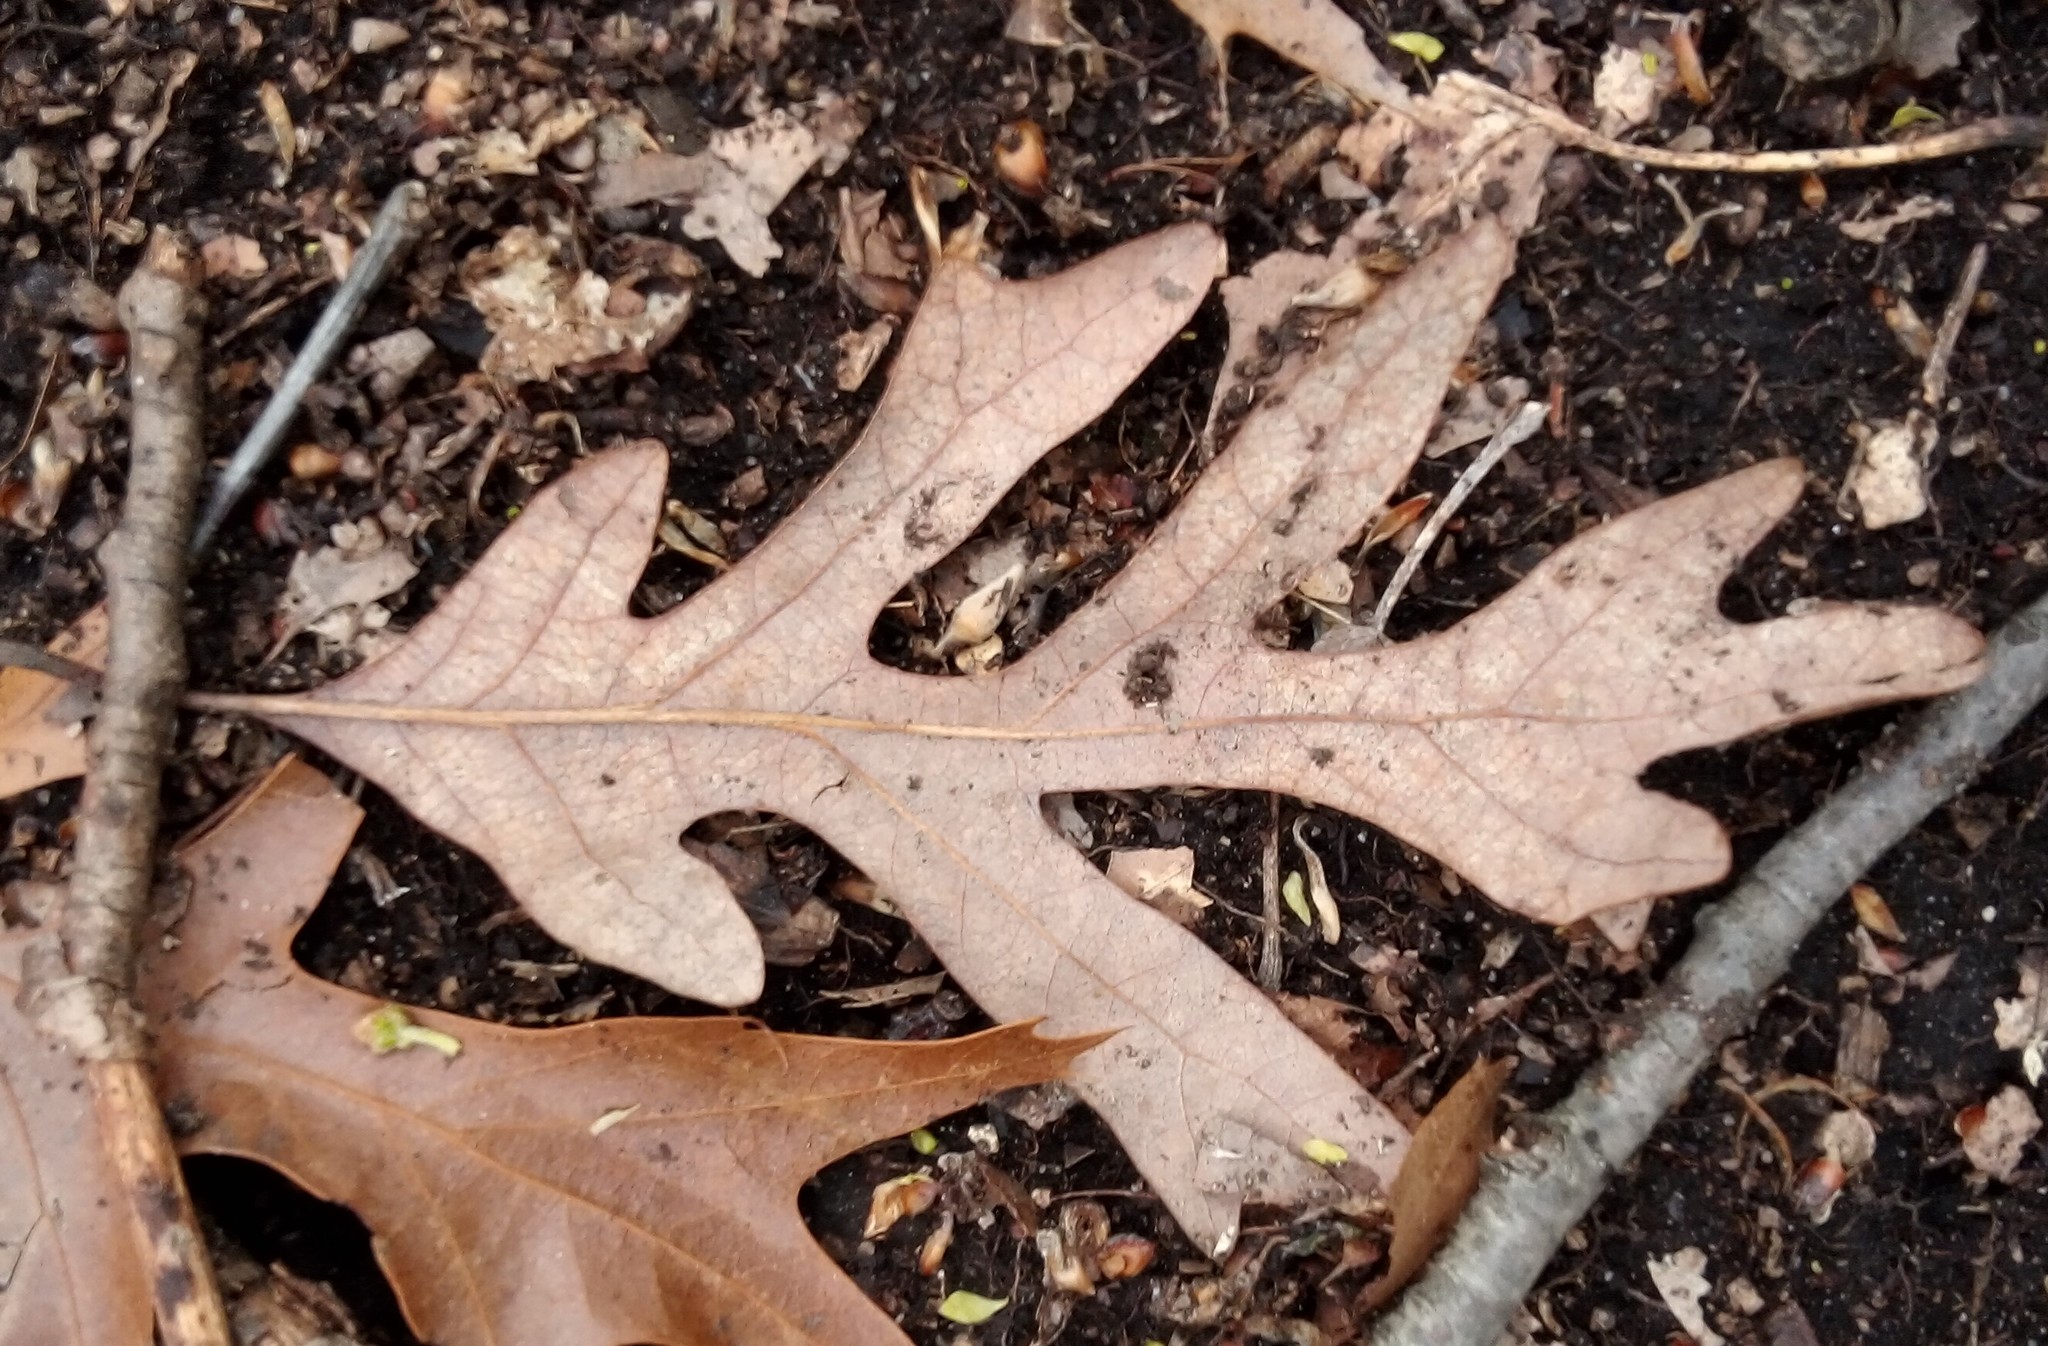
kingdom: Plantae
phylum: Tracheophyta
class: Magnoliopsida
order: Fagales
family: Fagaceae
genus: Quercus
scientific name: Quercus alba
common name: White oak
